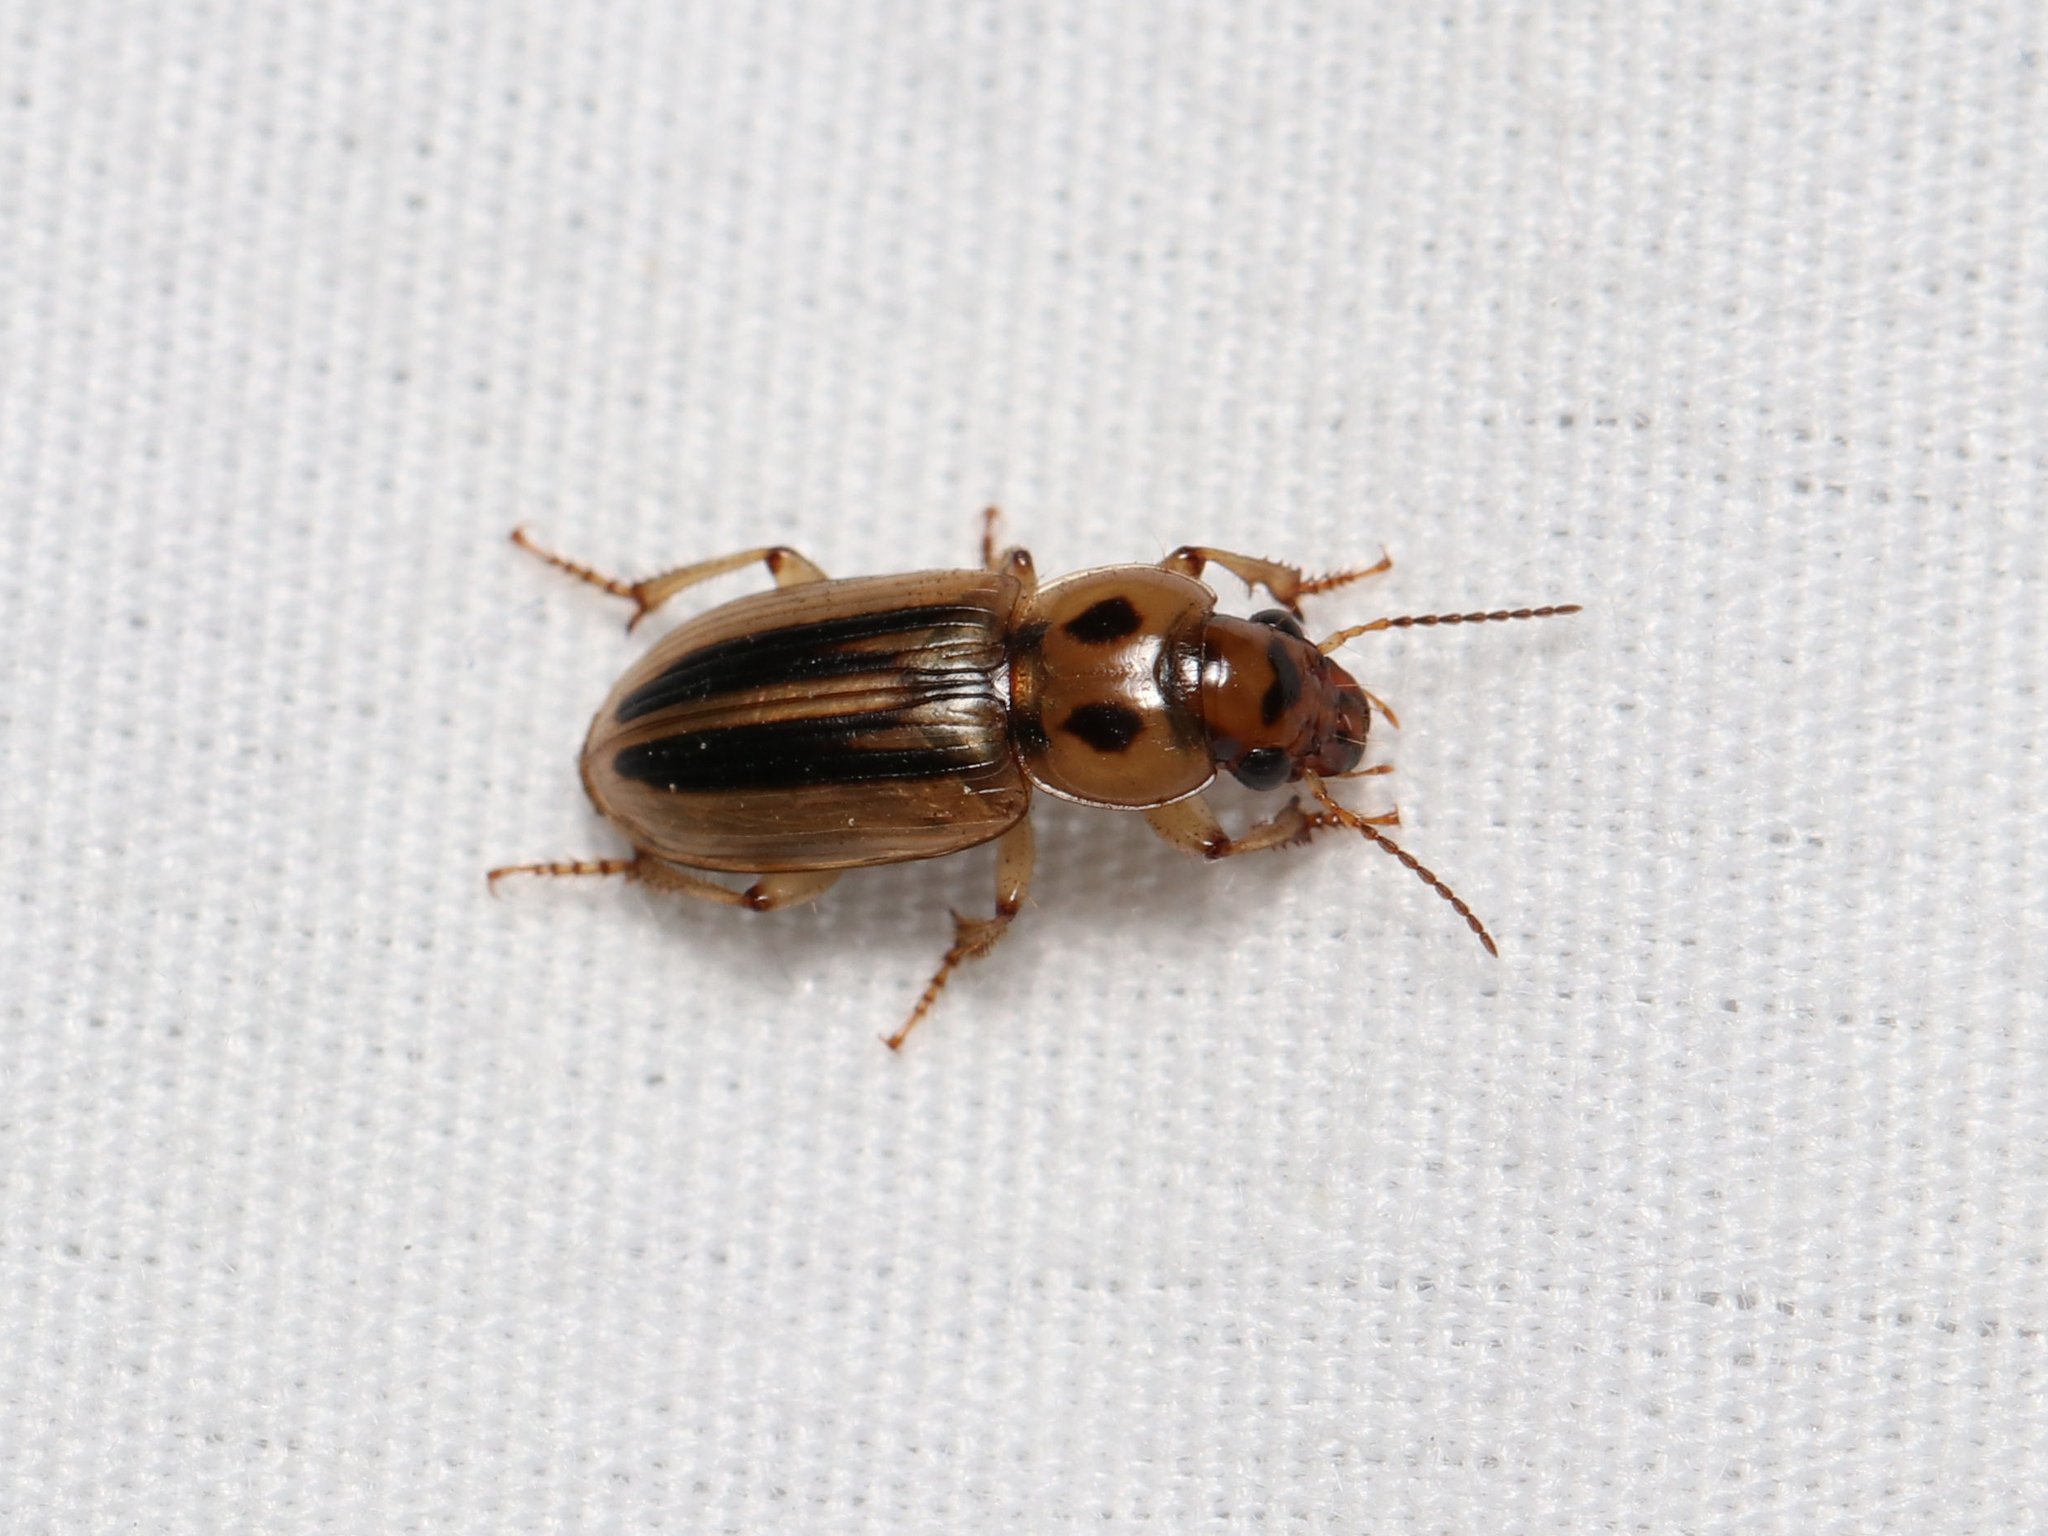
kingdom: Animalia
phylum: Arthropoda
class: Insecta
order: Coleoptera
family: Carabidae
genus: Stenolophus
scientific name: Stenolophus lineola
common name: Lined stenolophus
